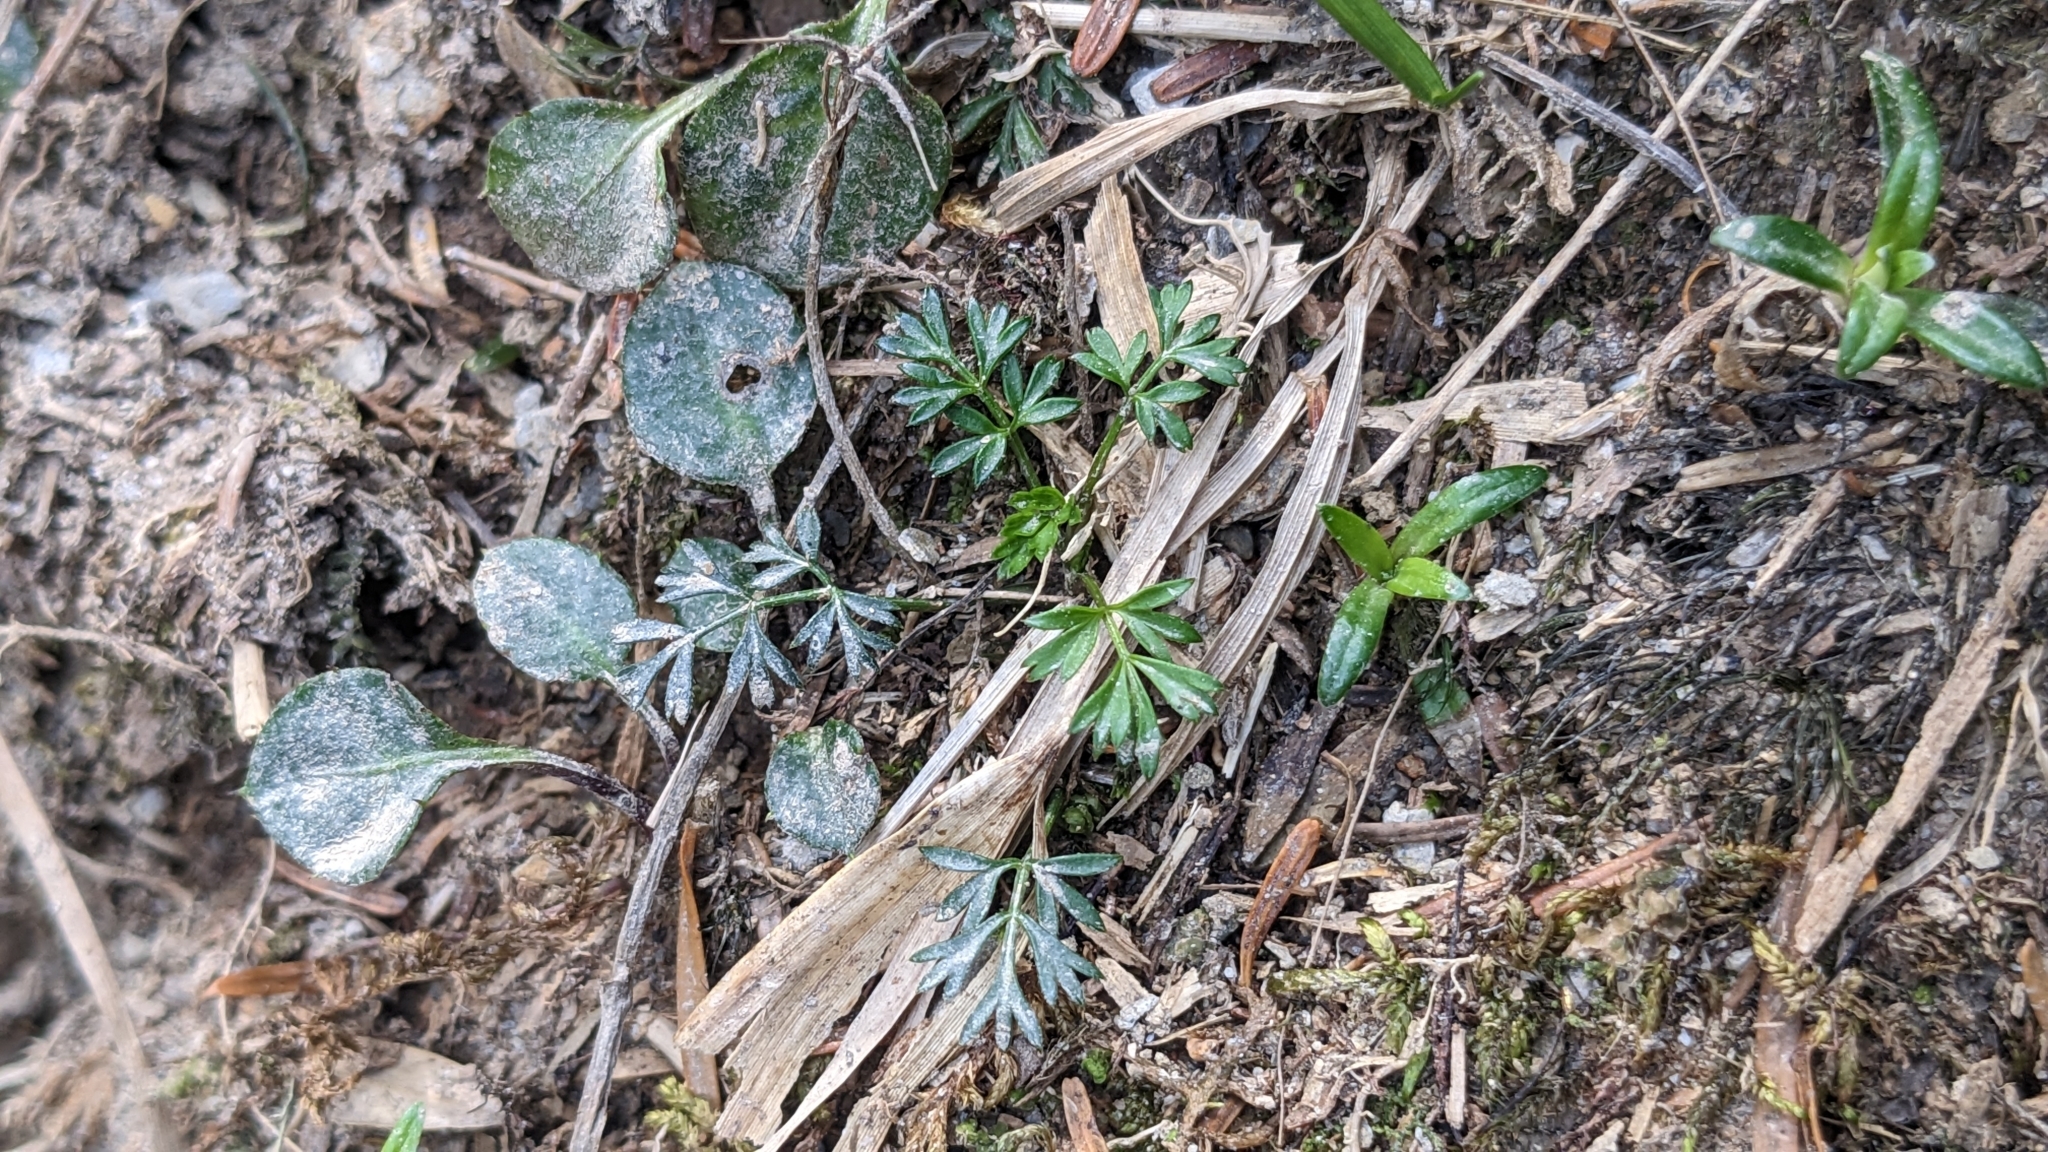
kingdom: Plantae
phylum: Tracheophyta
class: Magnoliopsida
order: Apiales
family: Apiaceae
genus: Chaerophyllum
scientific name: Chaerophyllum involucratum
